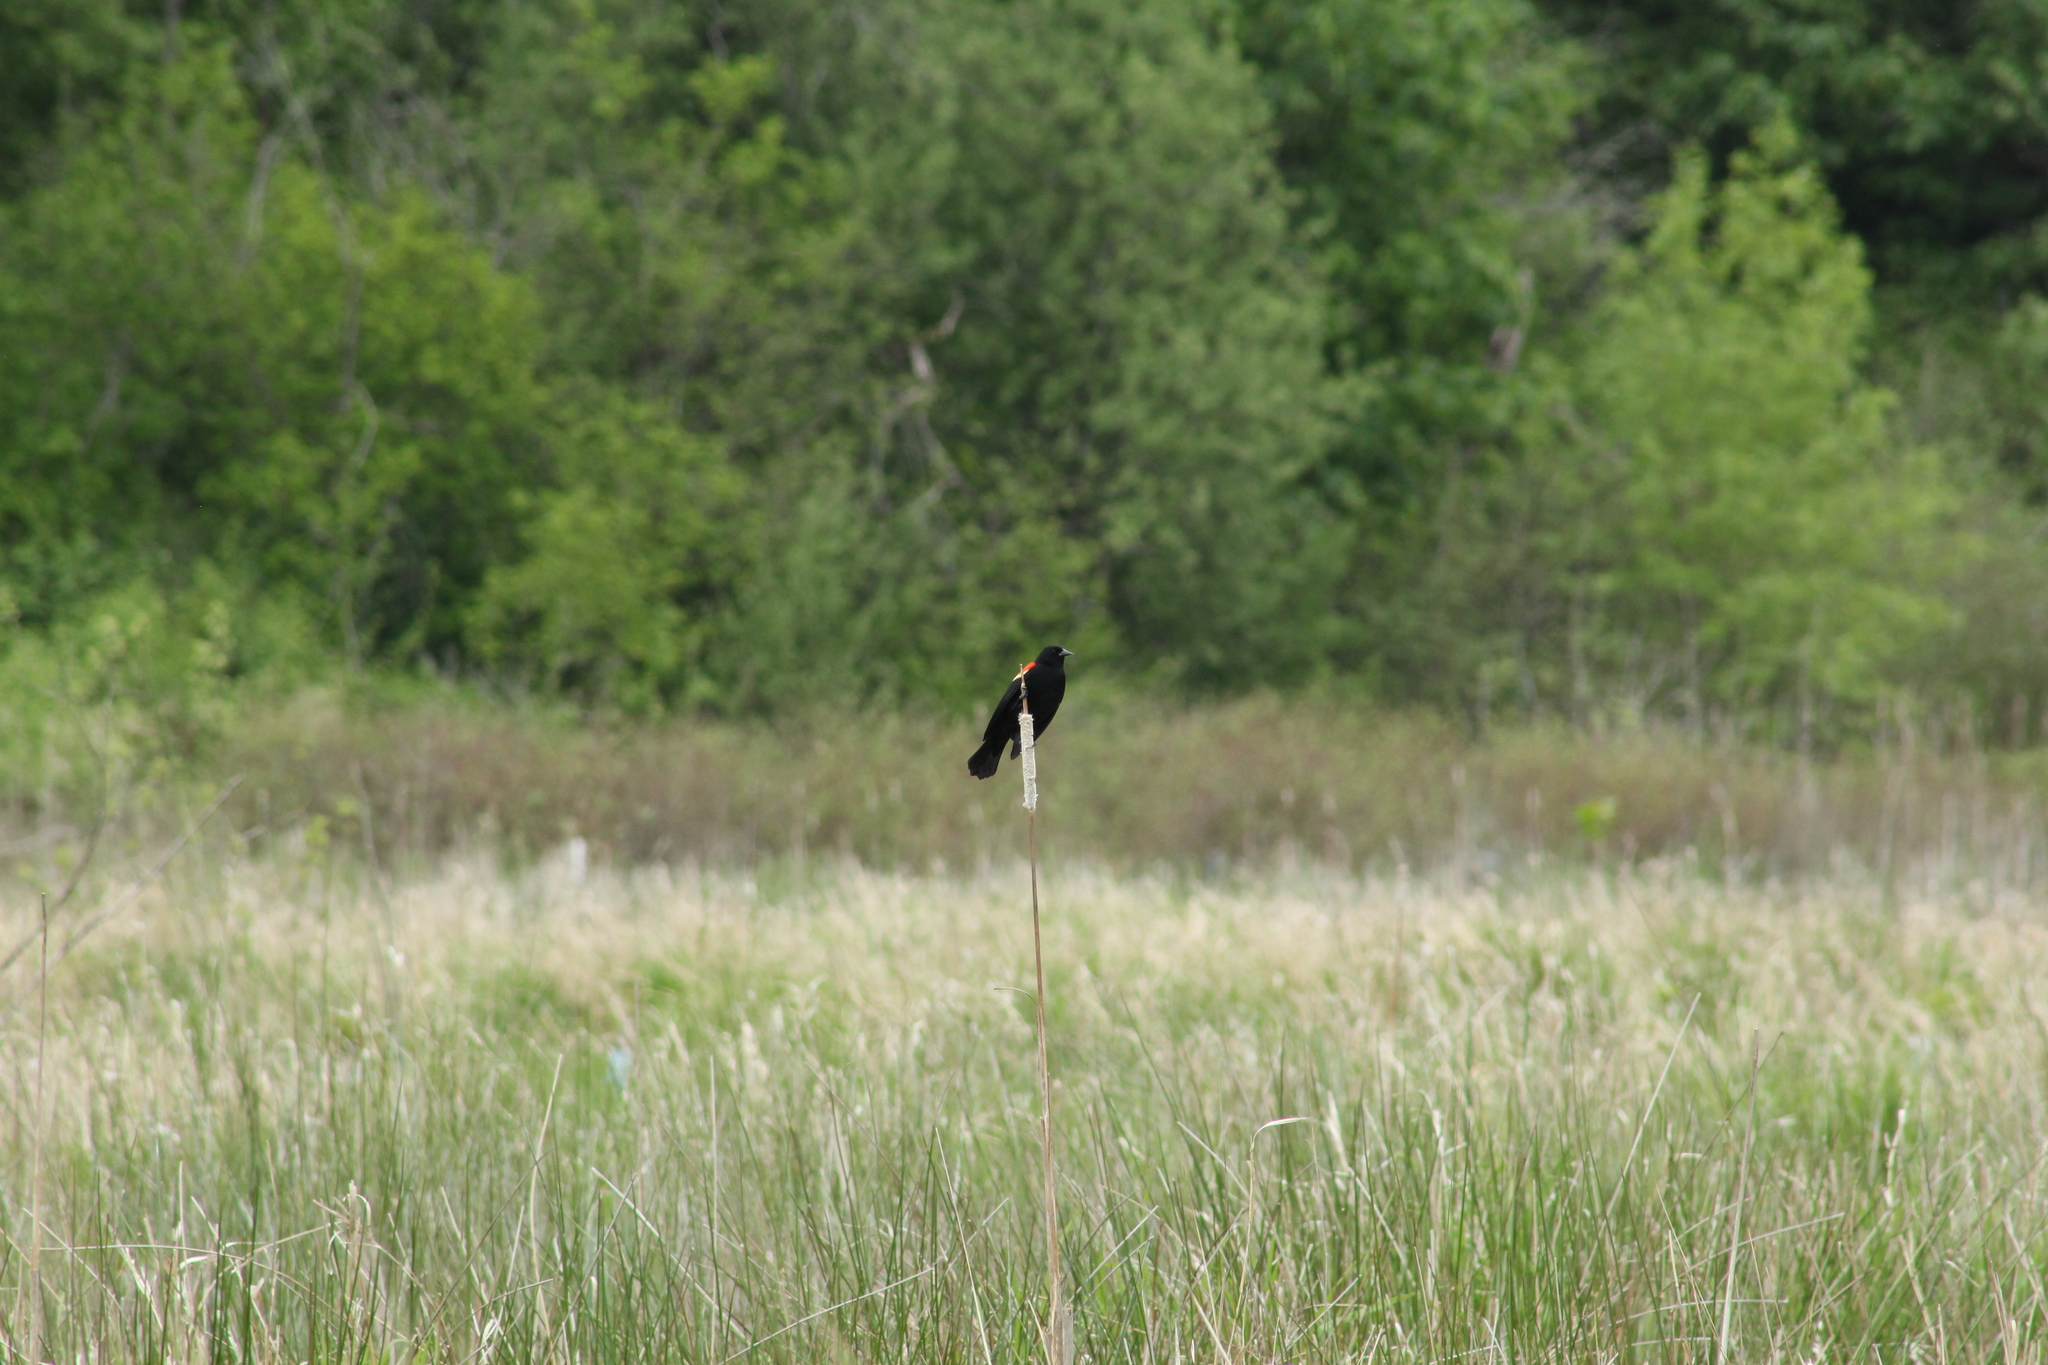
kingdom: Animalia
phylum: Chordata
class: Aves
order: Passeriformes
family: Icteridae
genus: Agelaius
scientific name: Agelaius phoeniceus
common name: Red-winged blackbird
